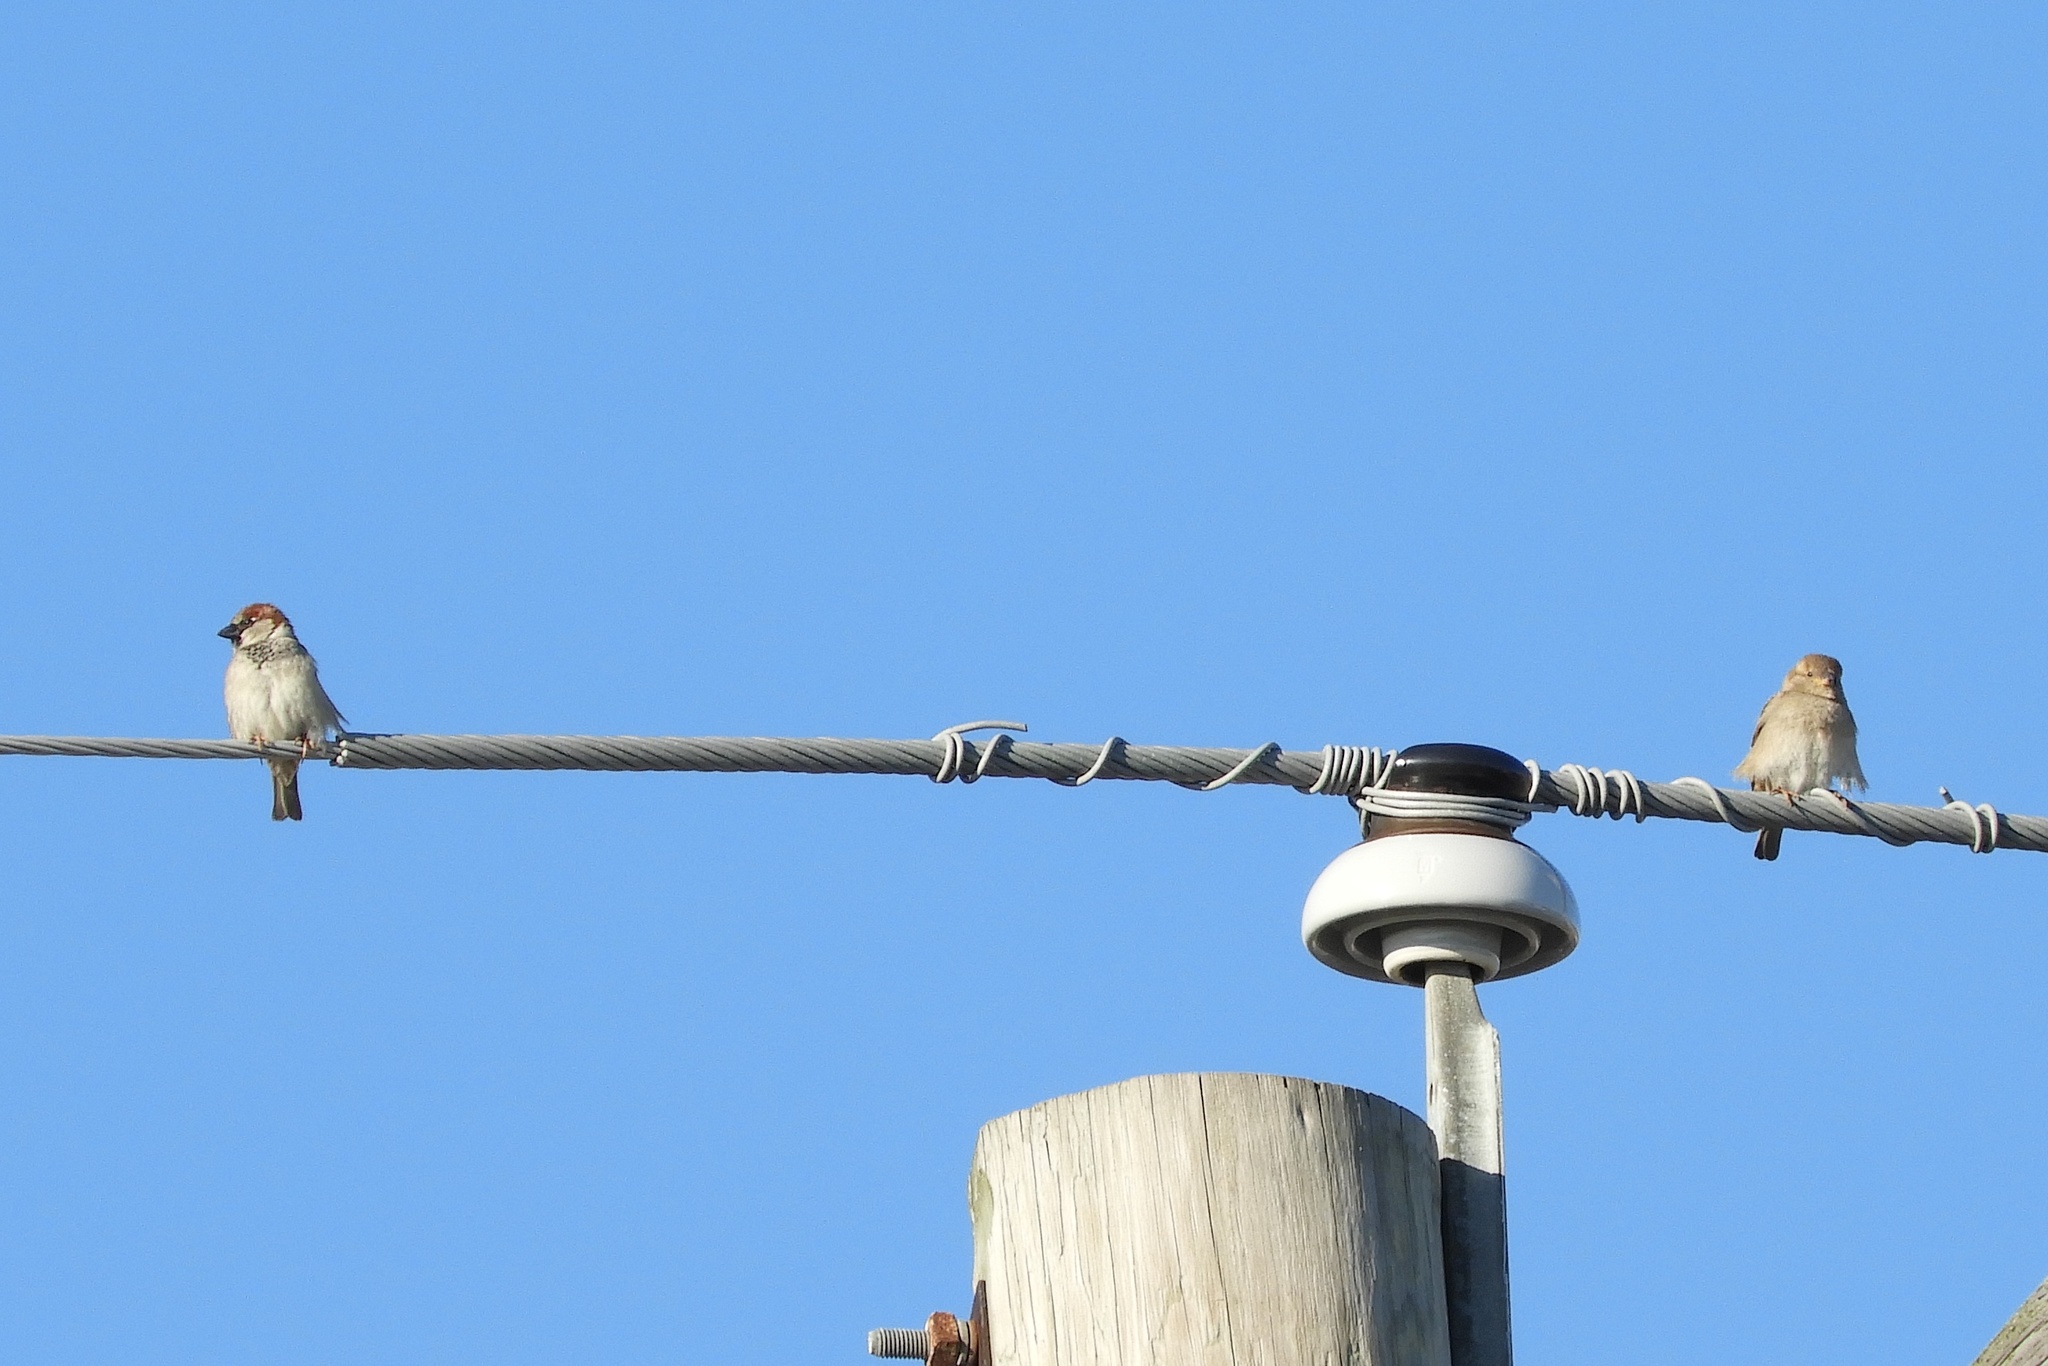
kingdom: Animalia
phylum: Chordata
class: Aves
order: Passeriformes
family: Passeridae
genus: Passer
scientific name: Passer domesticus
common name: House sparrow
